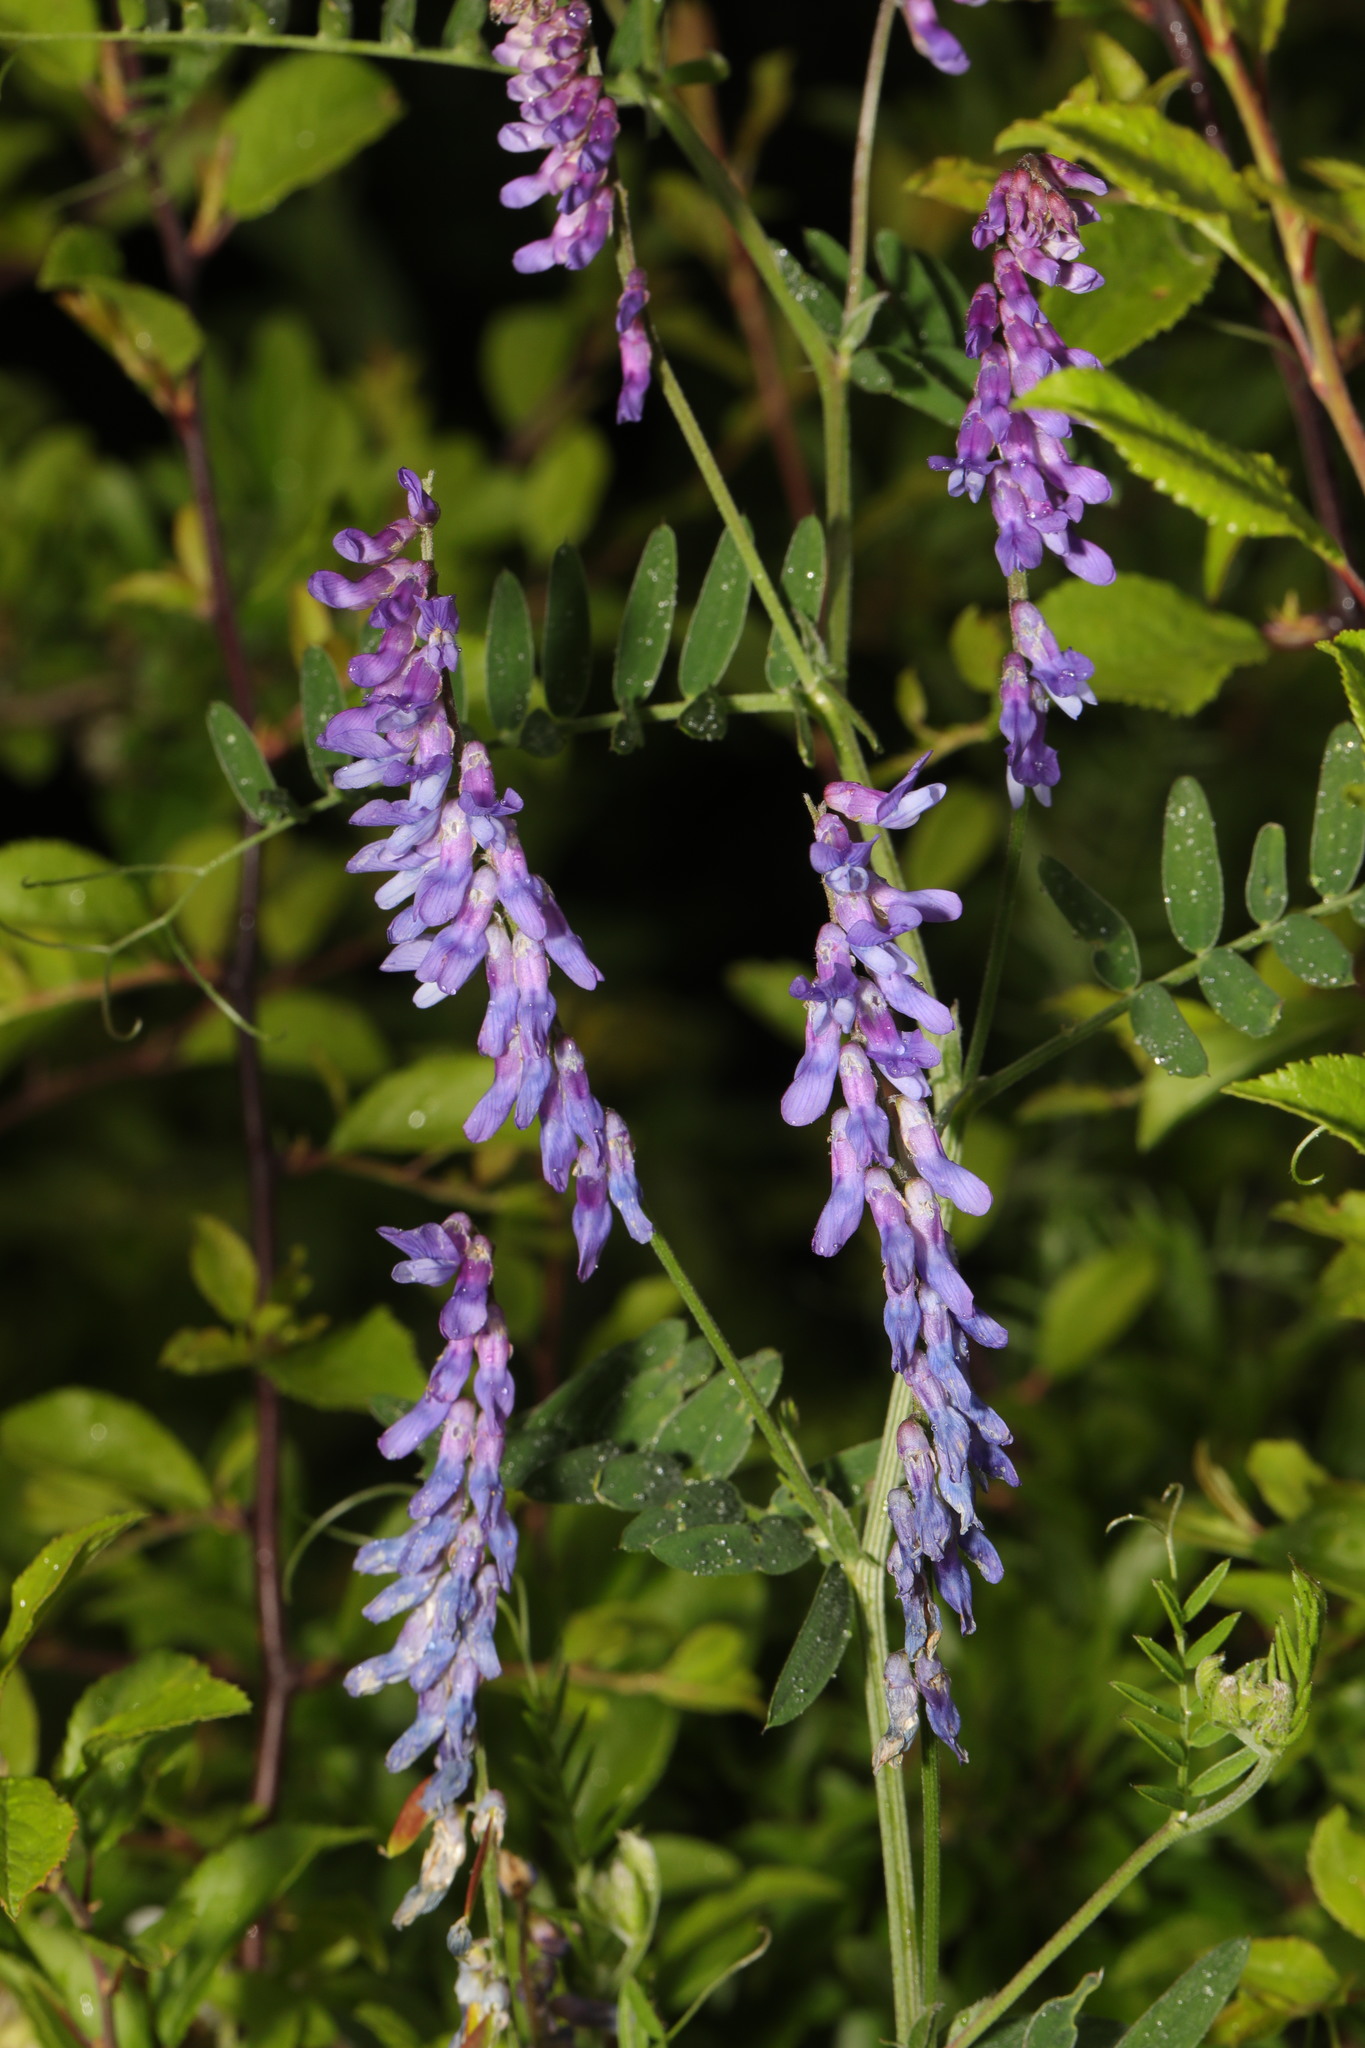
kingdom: Plantae
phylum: Tracheophyta
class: Magnoliopsida
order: Fabales
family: Fabaceae
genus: Vicia
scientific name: Vicia cracca
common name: Bird vetch
